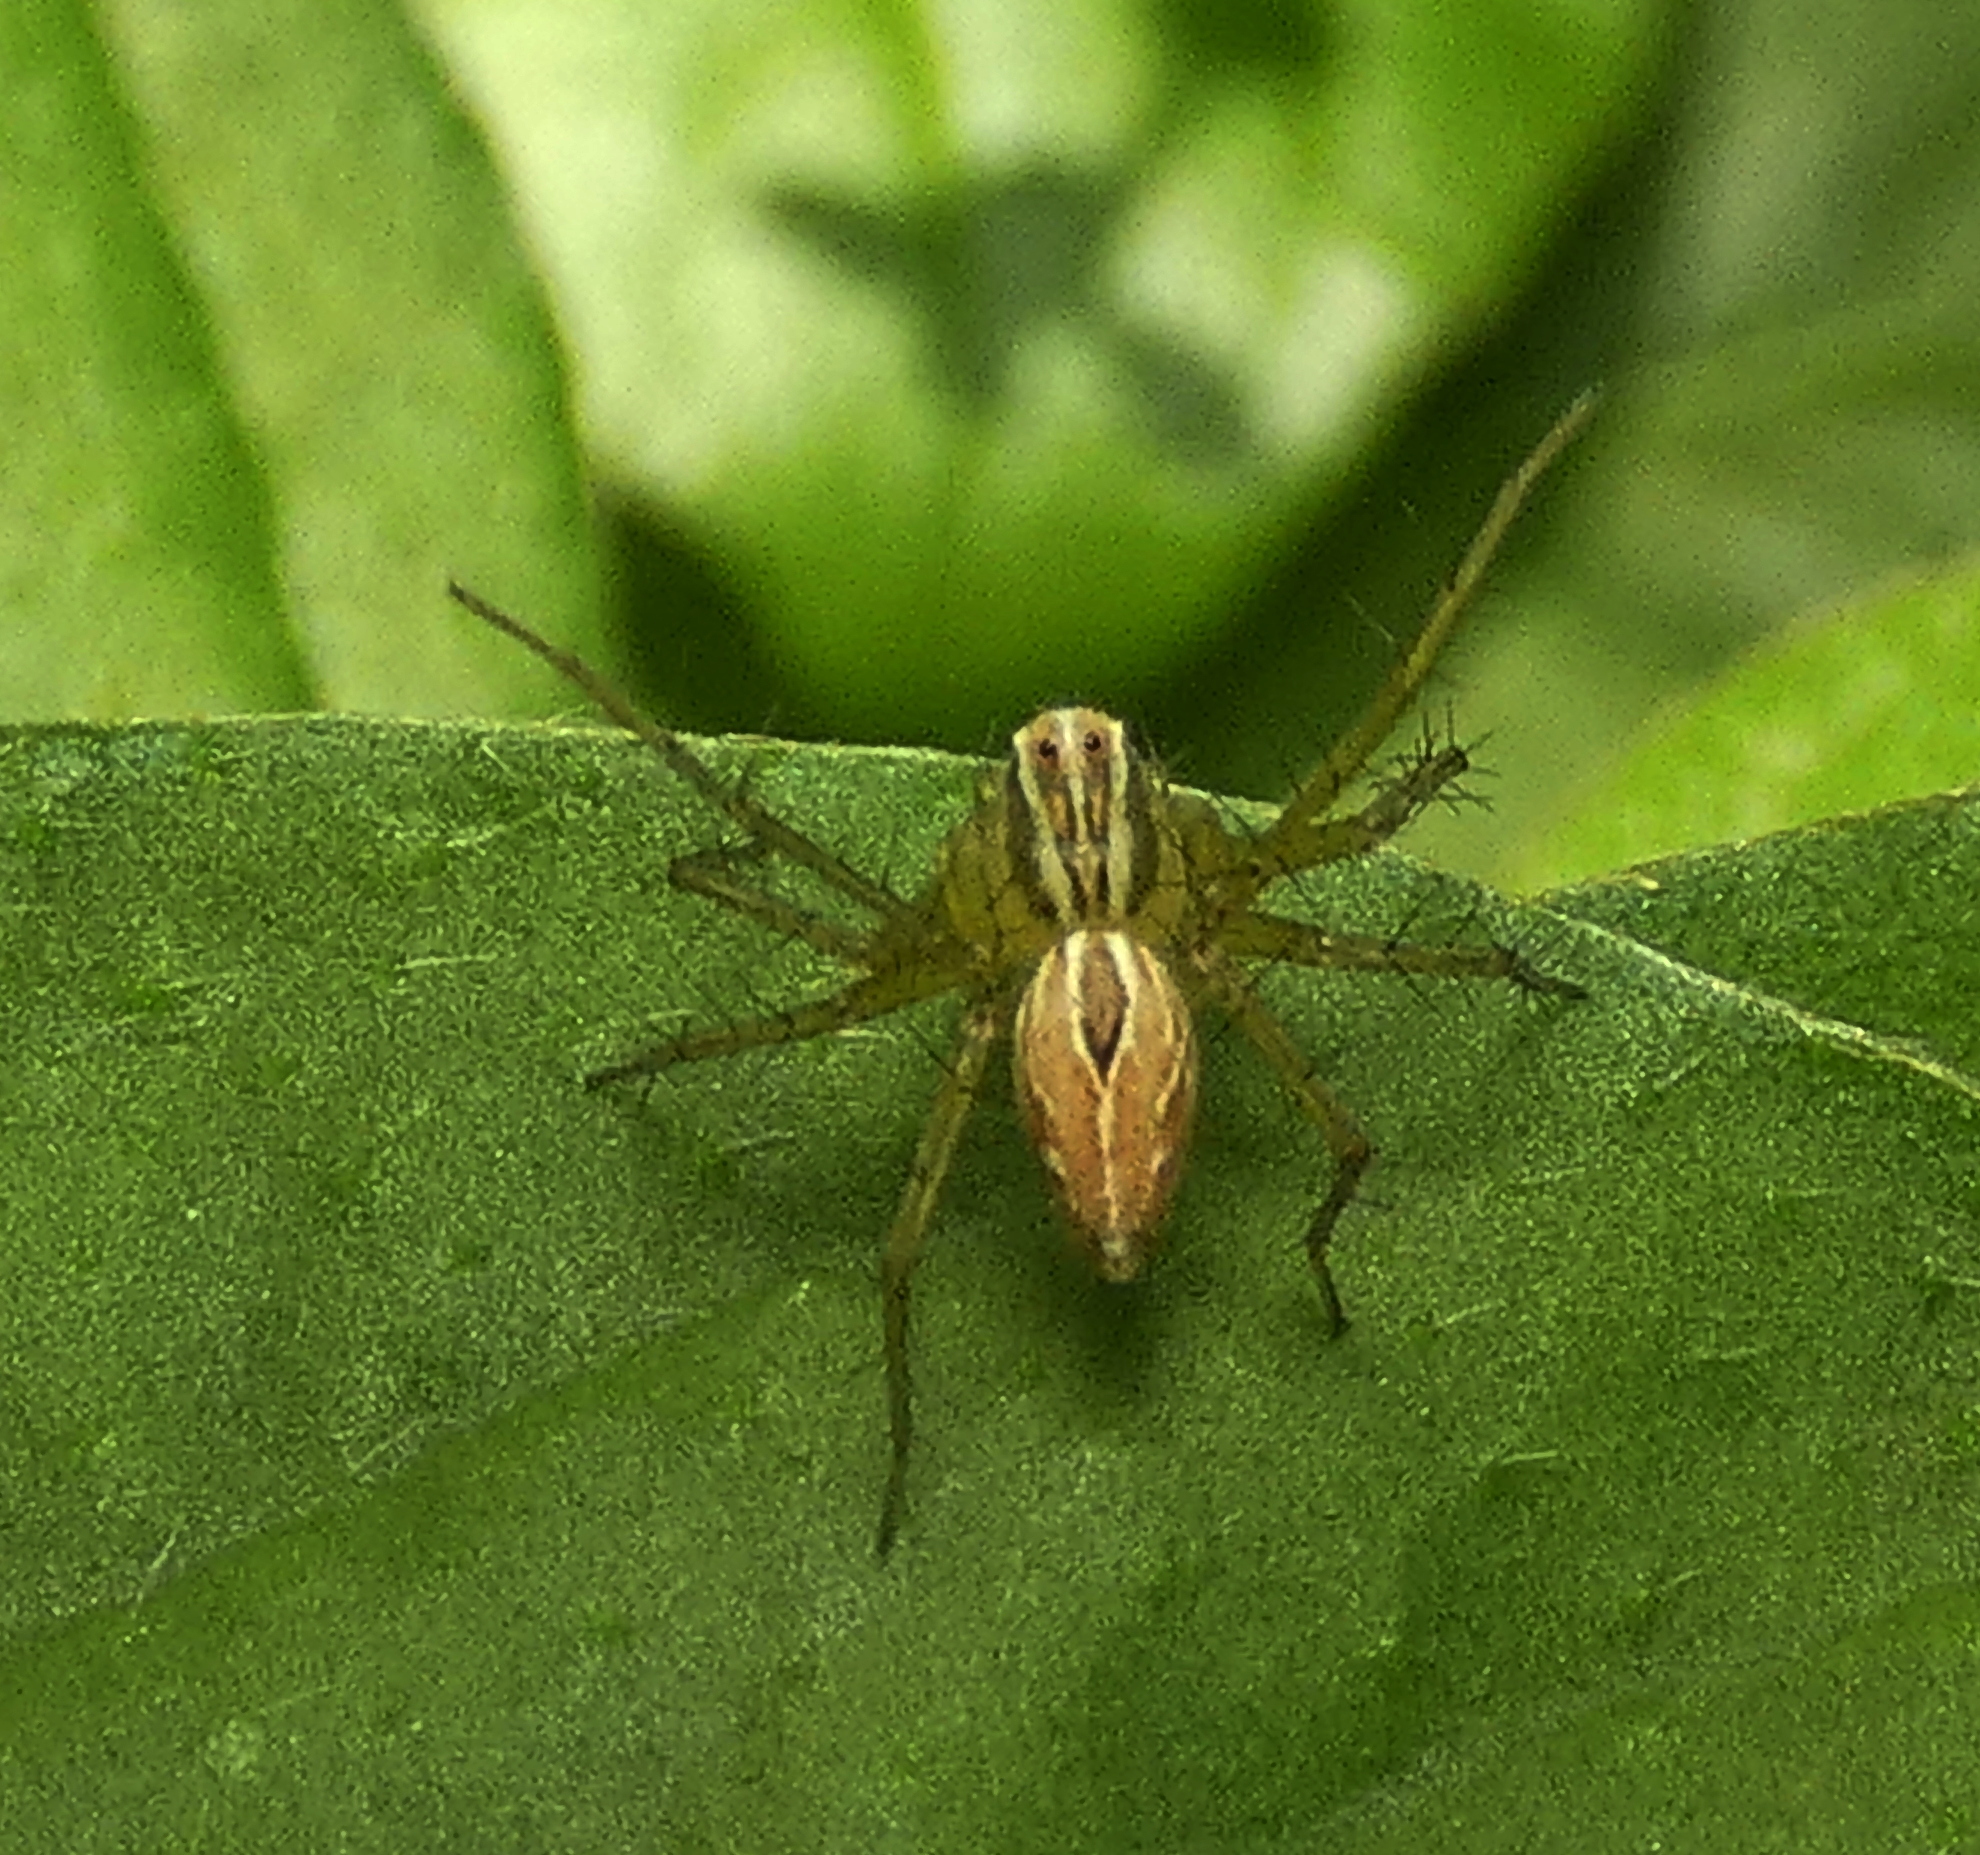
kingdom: Animalia
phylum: Arthropoda
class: Arachnida
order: Araneae
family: Oxyopidae
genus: Oxyopes
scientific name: Oxyopes salticus
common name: Lynx spiders
